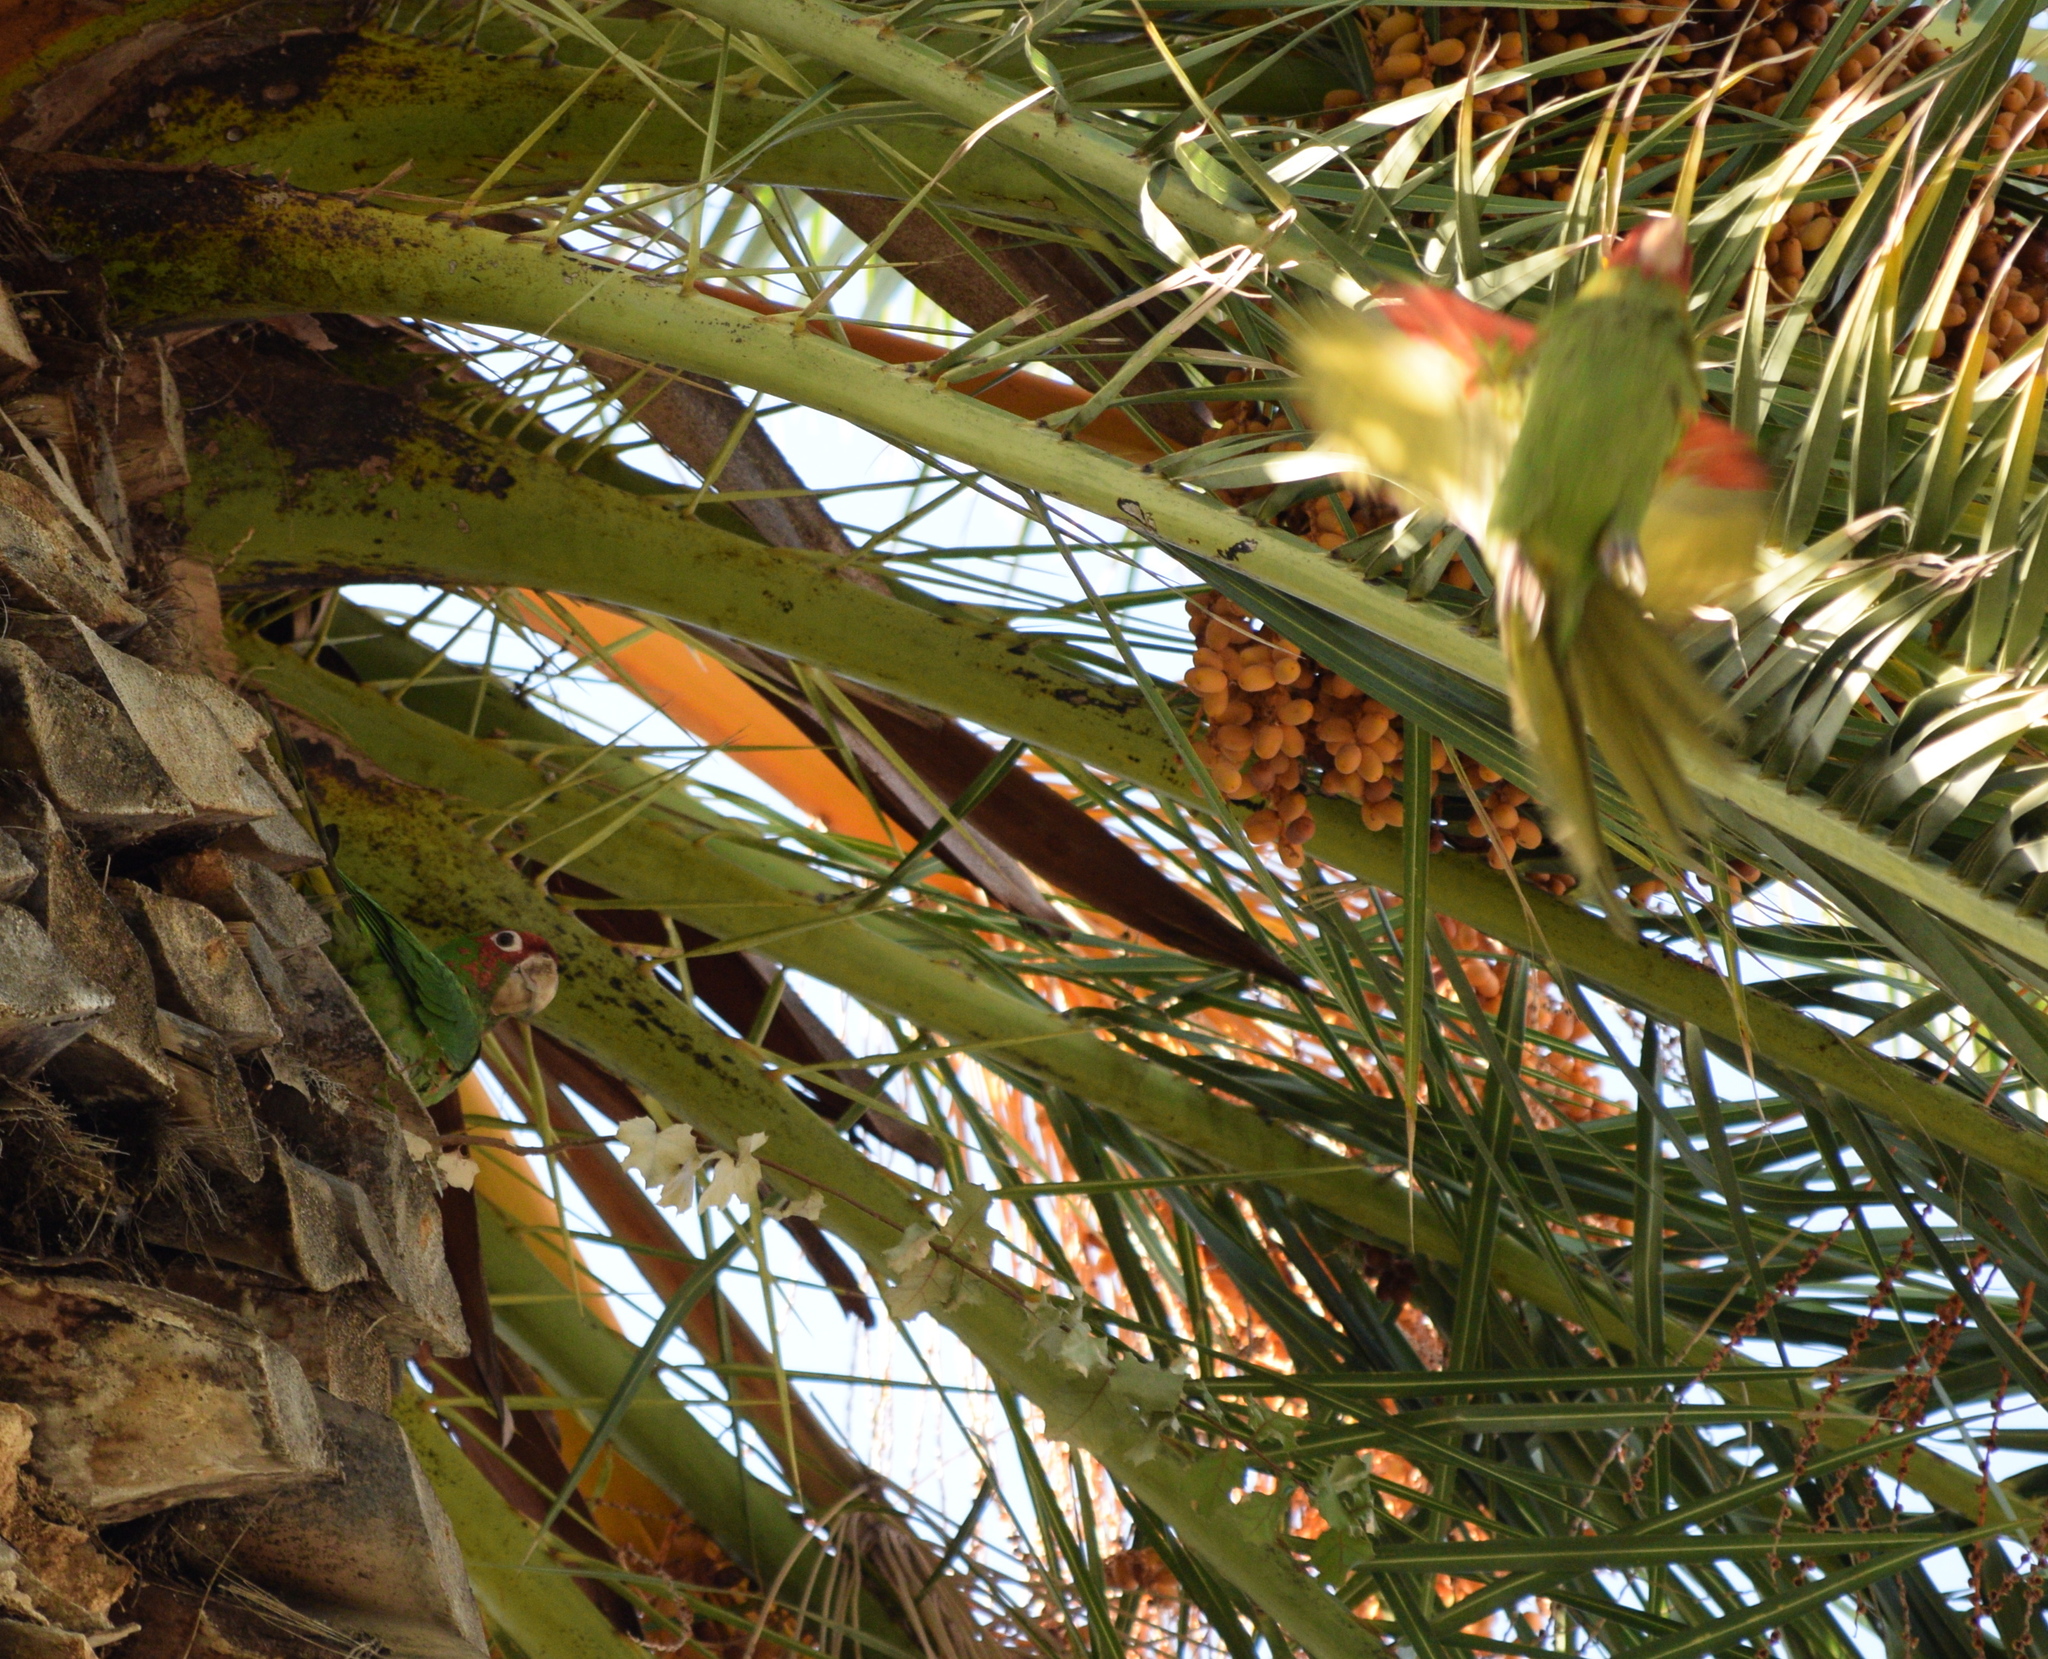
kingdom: Animalia
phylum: Chordata
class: Aves
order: Psittaciformes
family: Psittacidae
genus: Aratinga
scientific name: Aratinga erythrogenys
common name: Red-masked parakeet
